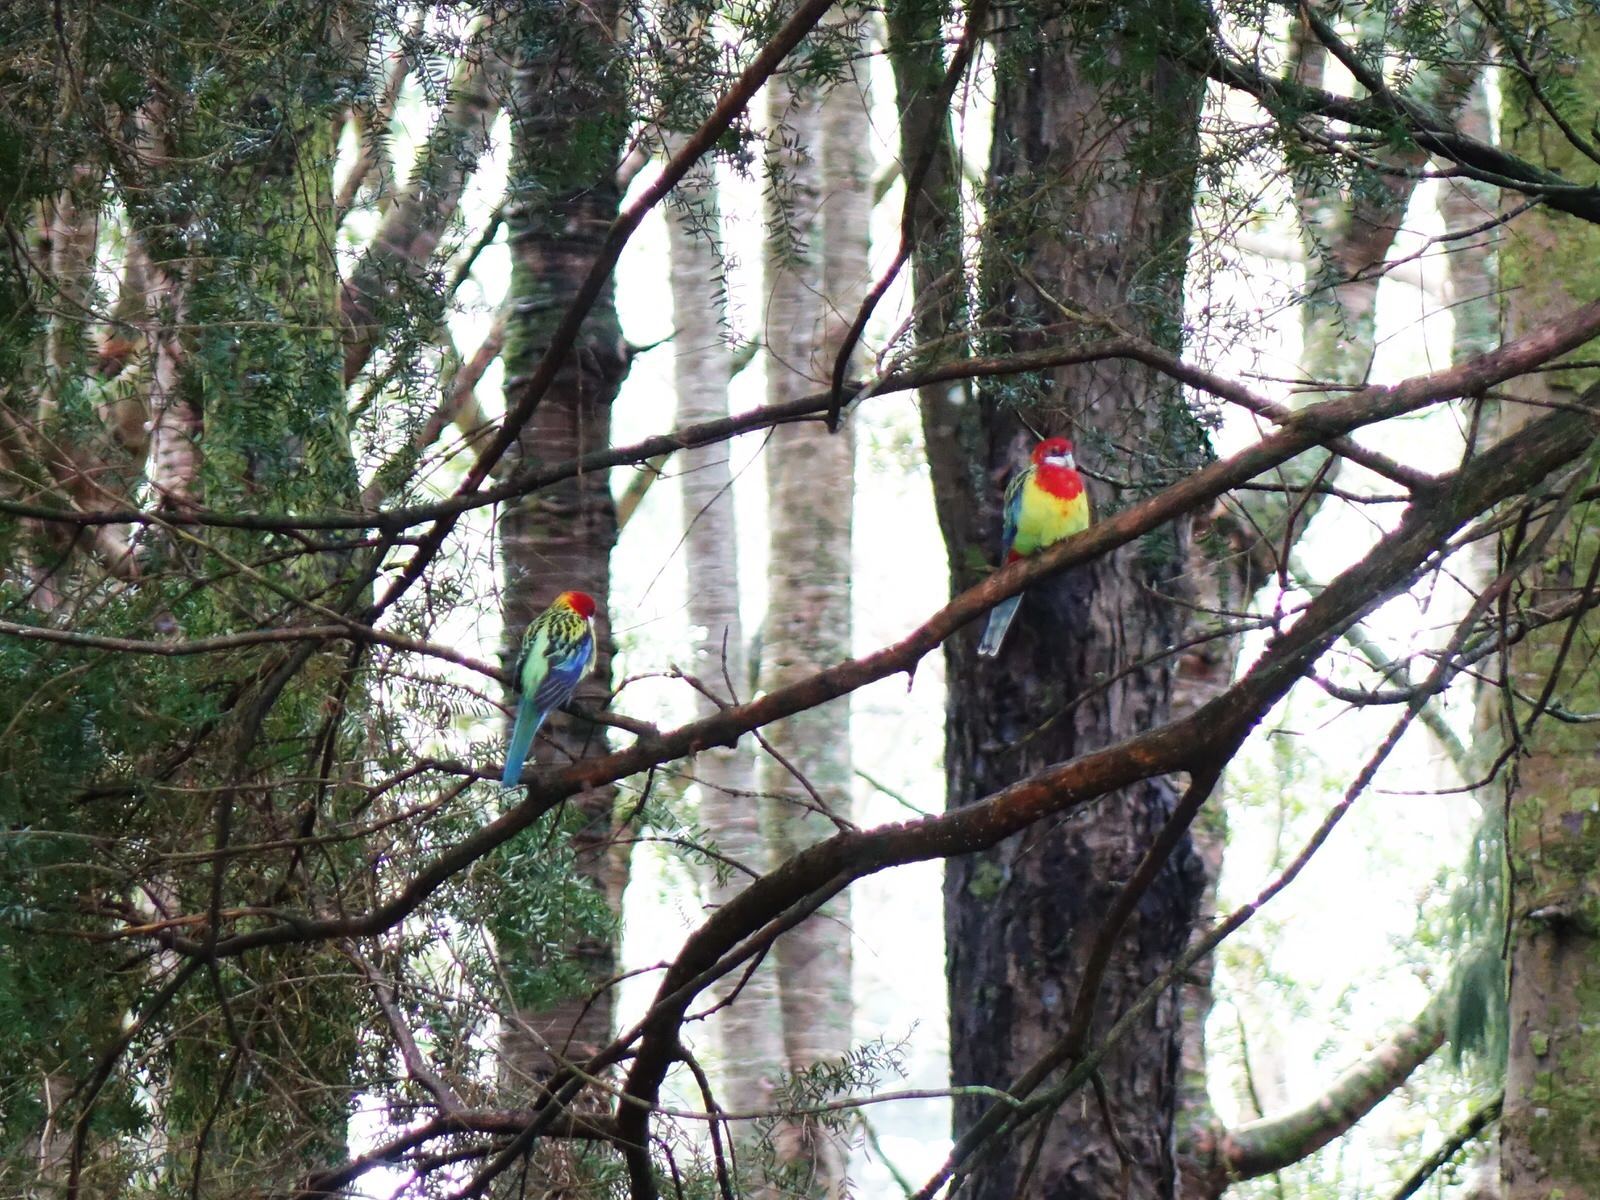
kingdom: Animalia
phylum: Chordata
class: Aves
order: Psittaciformes
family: Psittacidae
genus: Platycercus
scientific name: Platycercus eximius
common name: Eastern rosella
